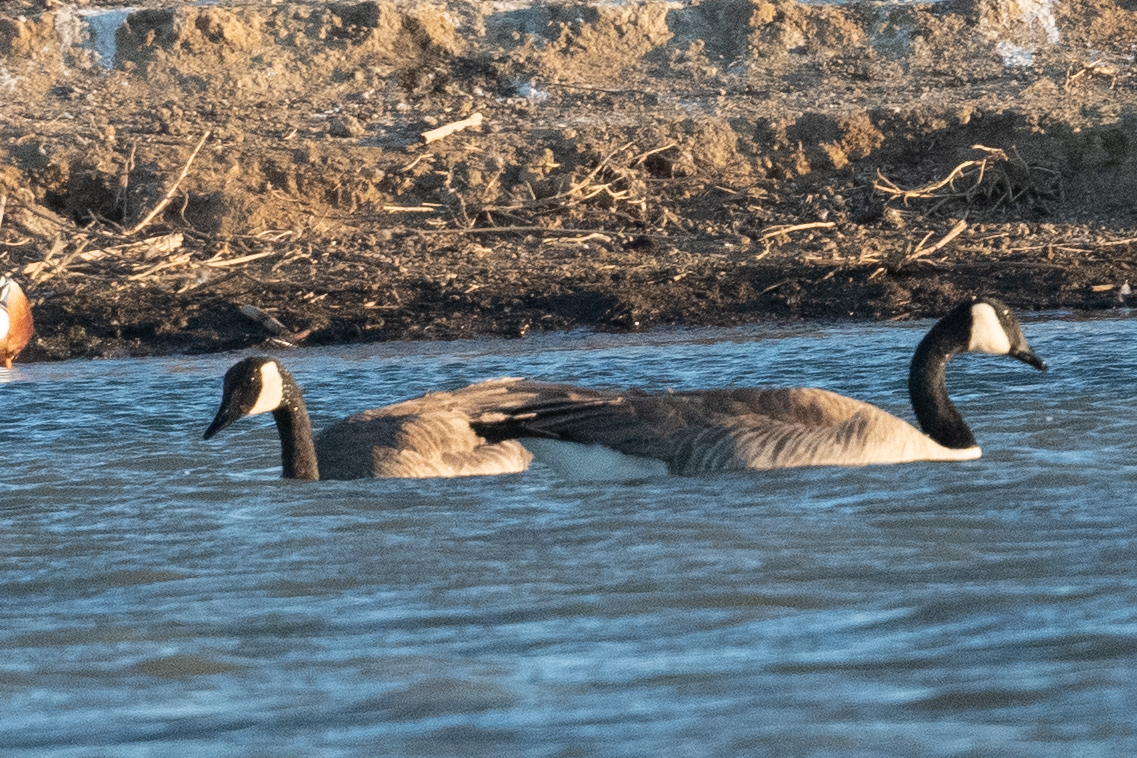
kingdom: Animalia
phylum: Chordata
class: Aves
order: Anseriformes
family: Anatidae
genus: Branta
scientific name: Branta canadensis
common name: Canada goose
